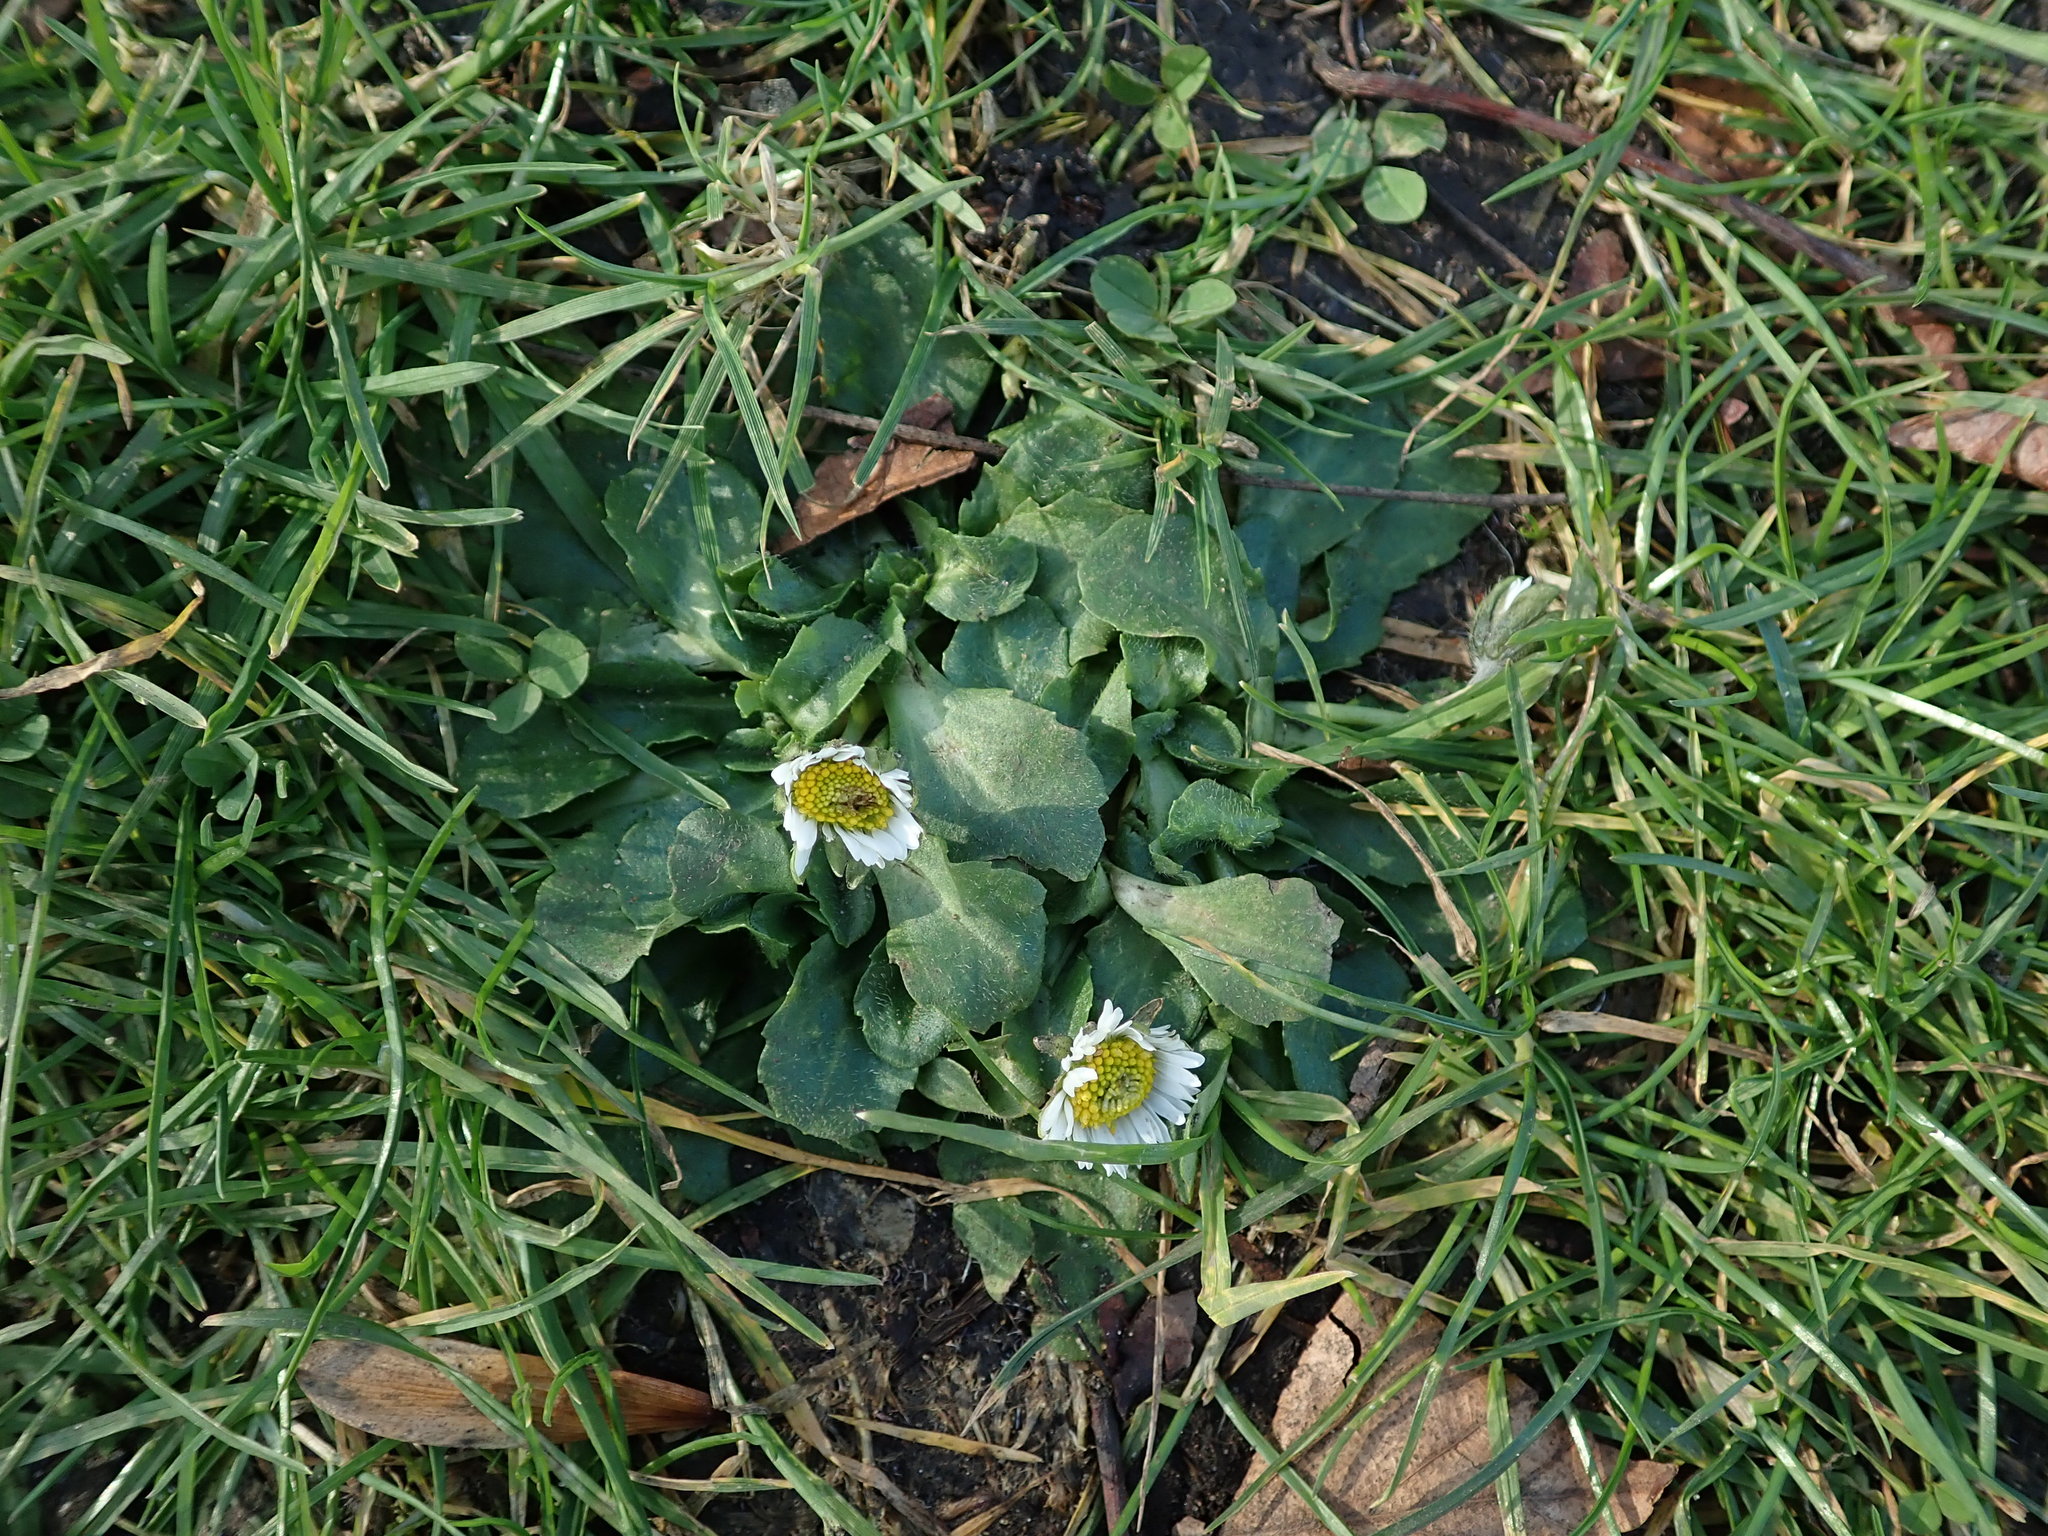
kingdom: Plantae
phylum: Tracheophyta
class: Magnoliopsida
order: Asterales
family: Asteraceae
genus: Bellis
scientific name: Bellis perennis
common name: Lawndaisy
